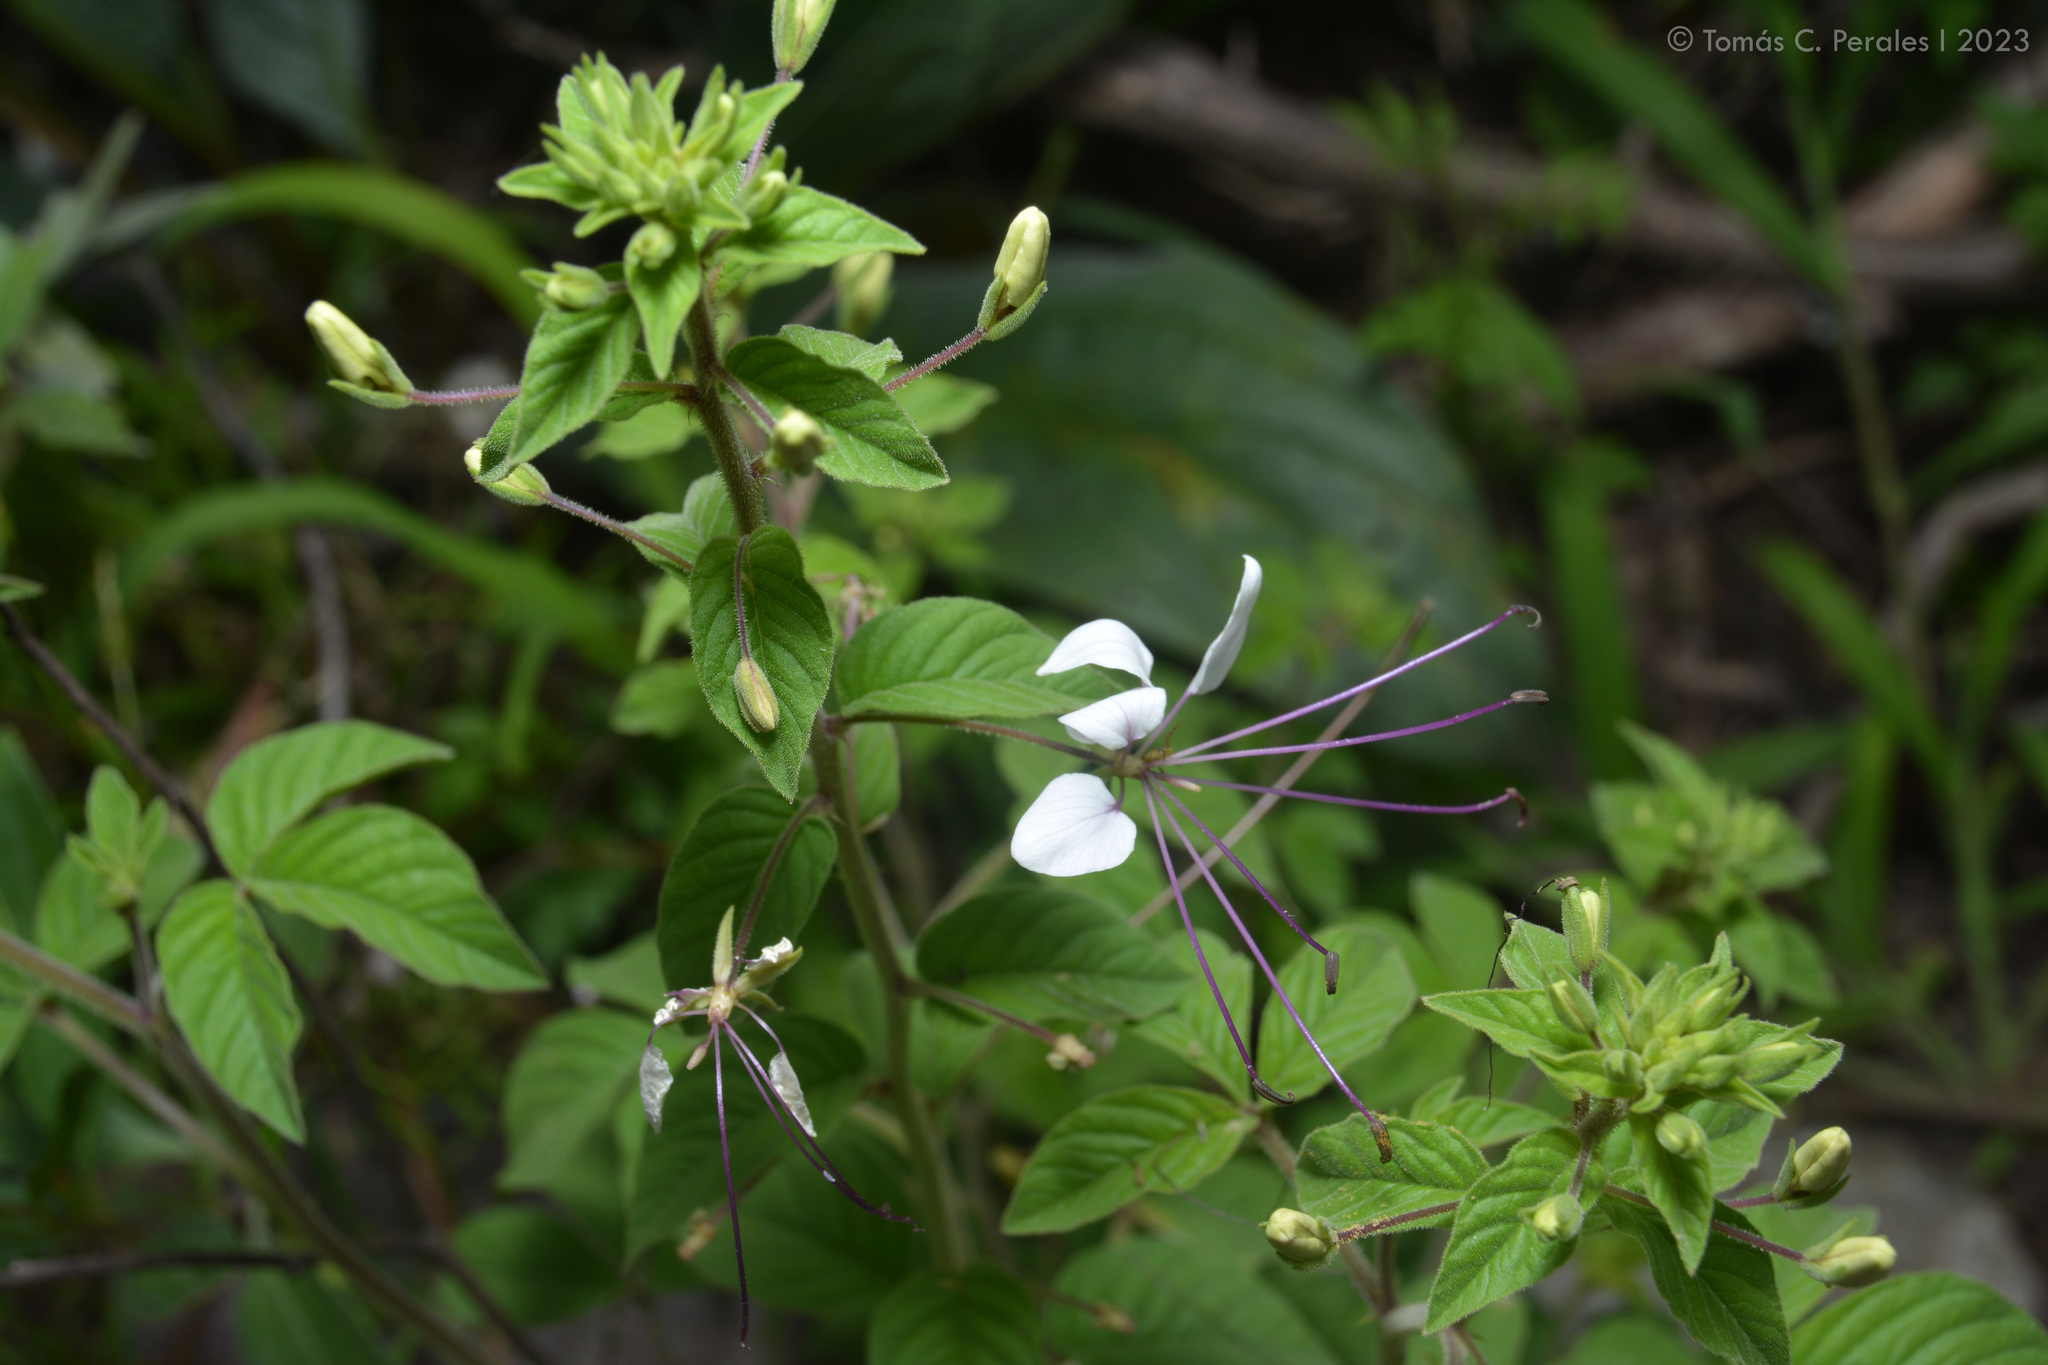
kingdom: Plantae
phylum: Tracheophyta
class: Magnoliopsida
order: Brassicales
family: Cleomaceae
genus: Tarenaya
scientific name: Tarenaya aculeata
